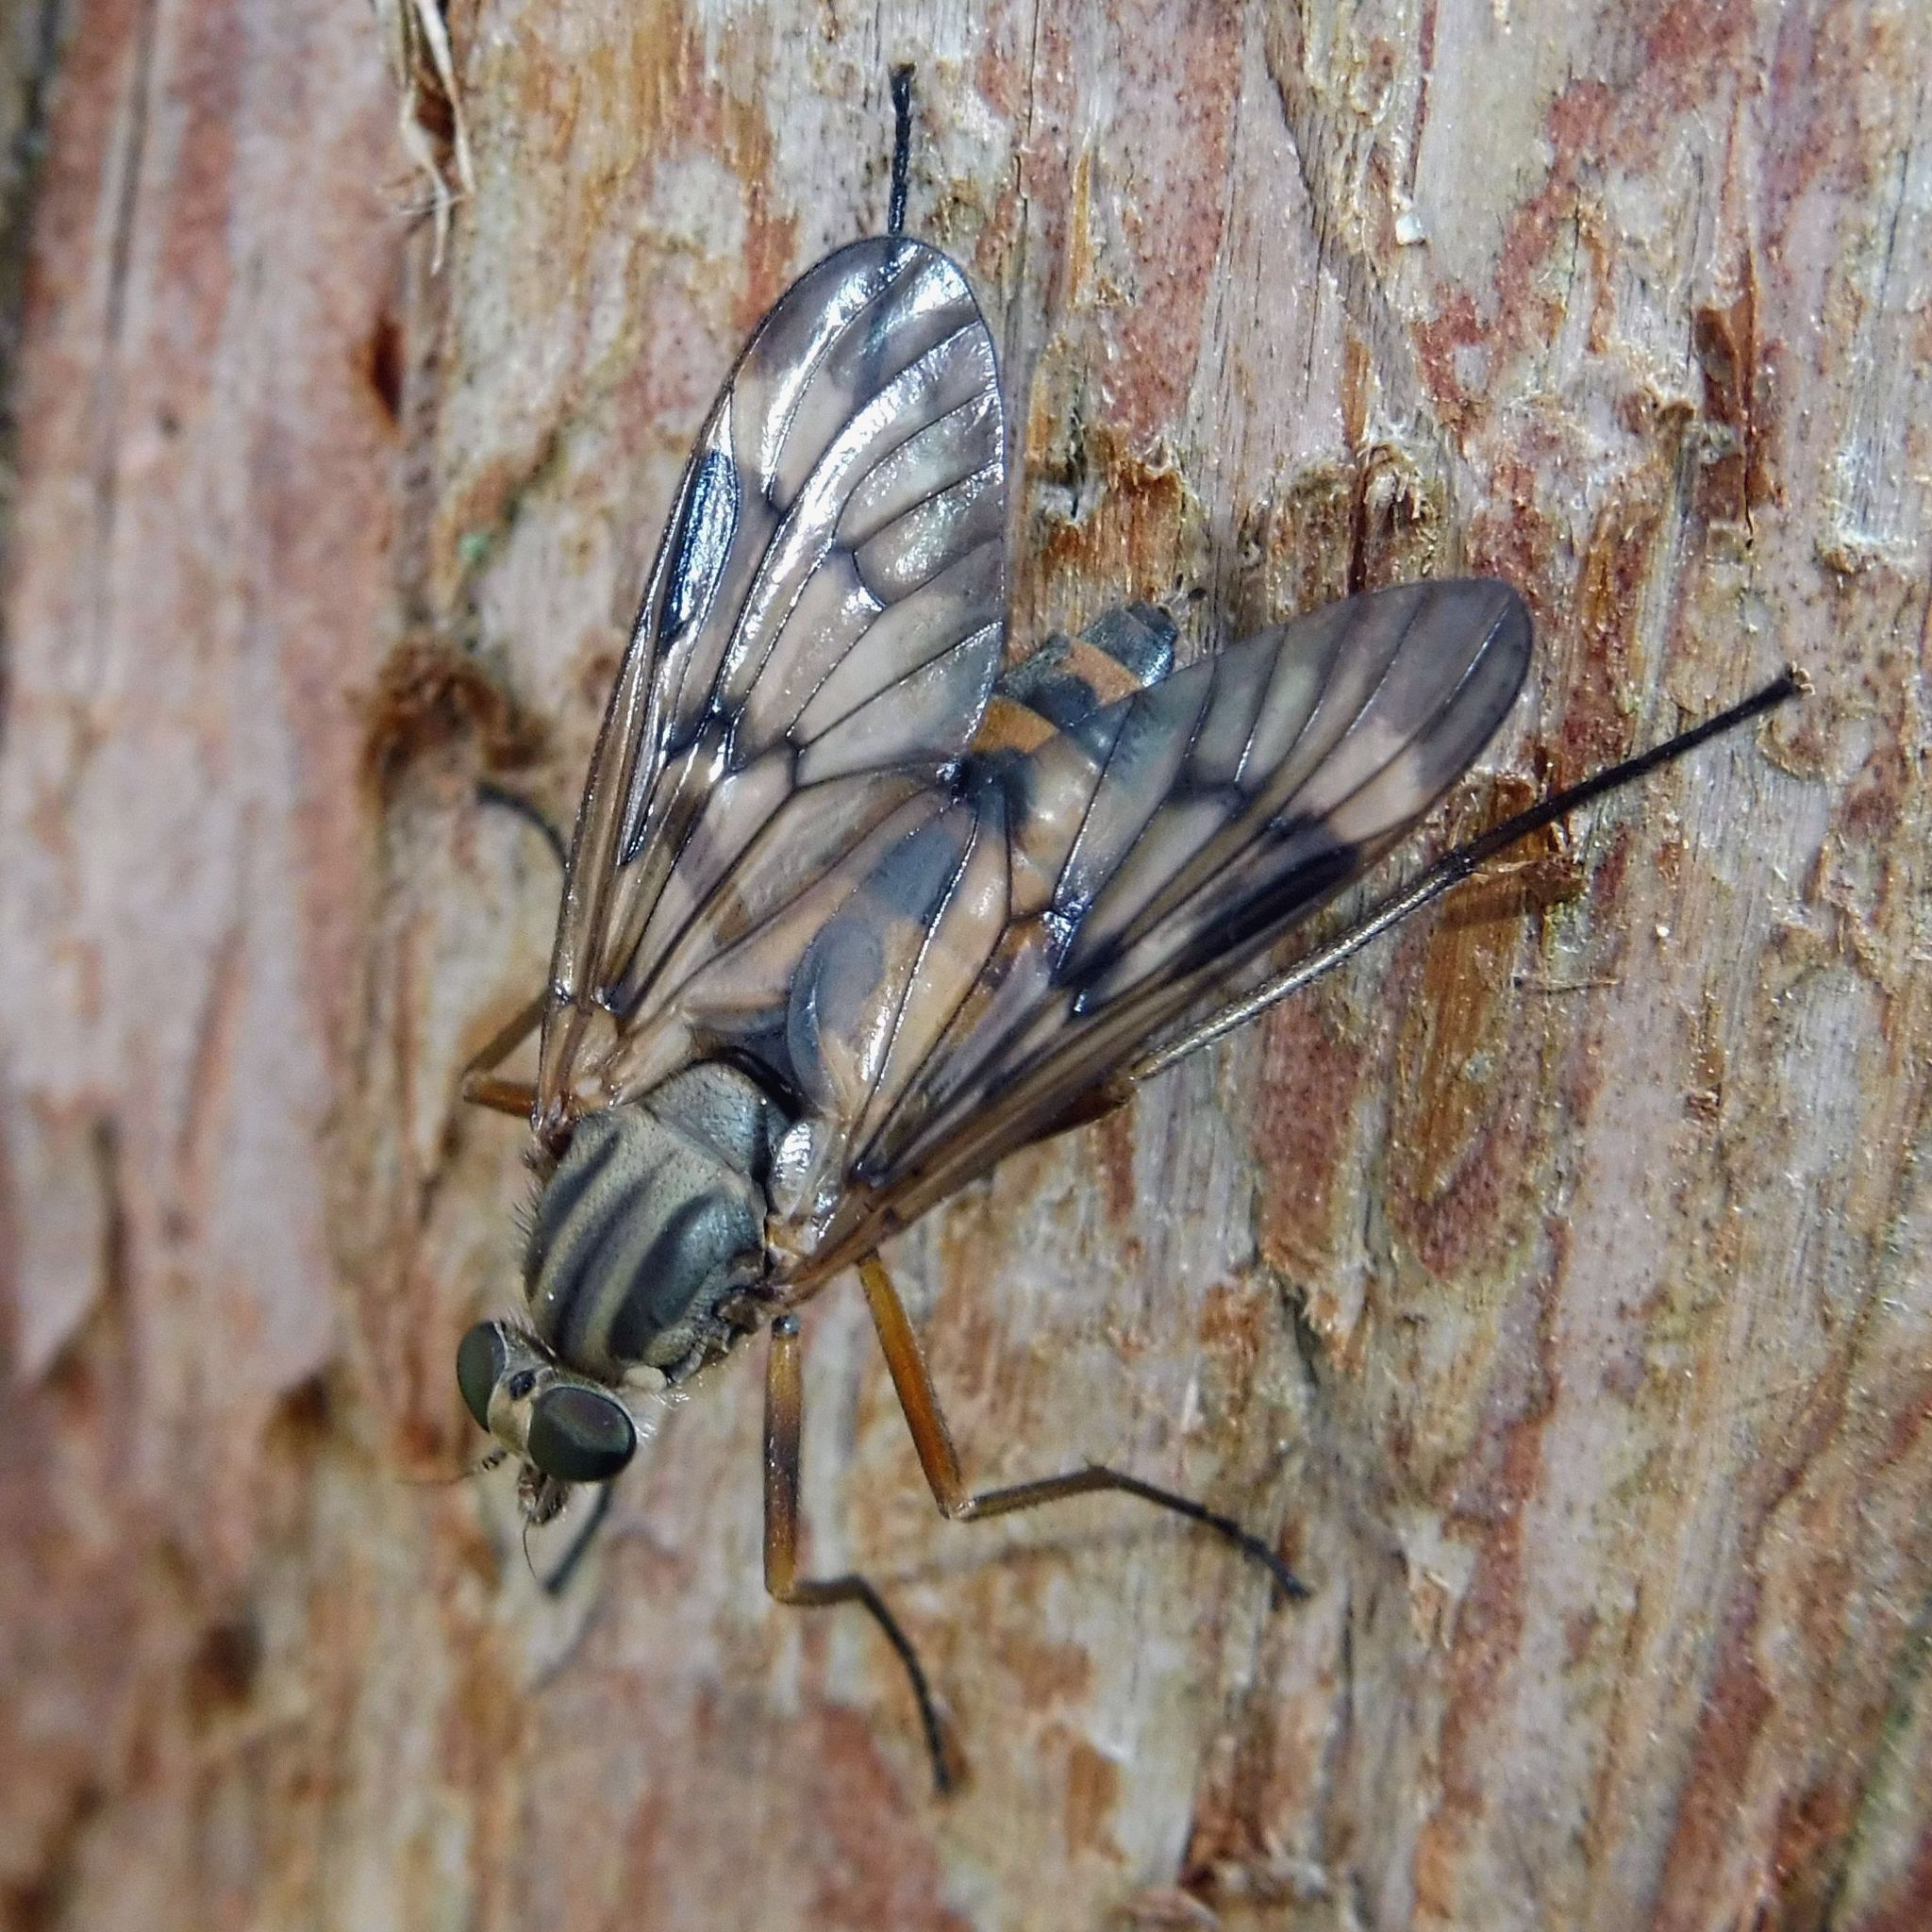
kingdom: Animalia
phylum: Arthropoda
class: Insecta
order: Diptera
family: Rhagionidae
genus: Rhagio
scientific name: Rhagio scolopacea
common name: Downlooker snipefly
